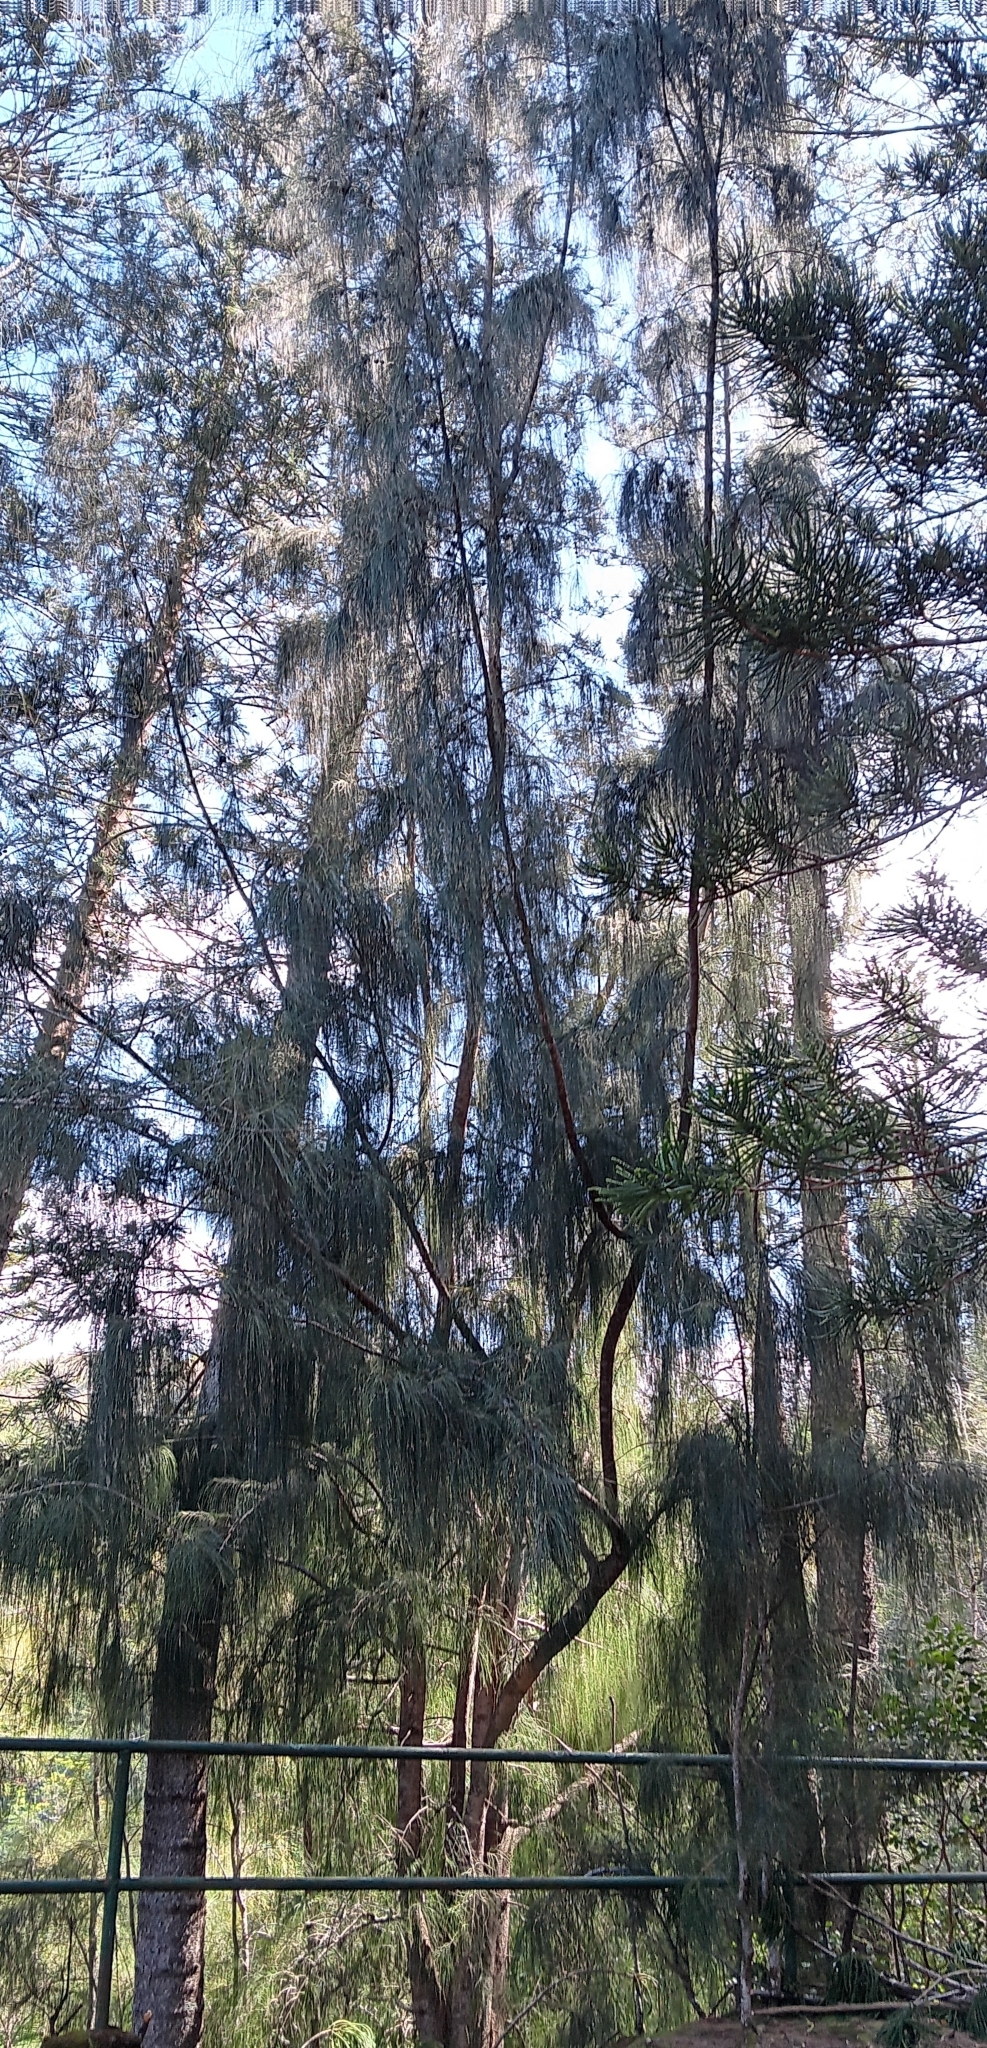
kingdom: Plantae
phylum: Tracheophyta
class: Magnoliopsida
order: Fagales
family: Casuarinaceae
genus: Casuarina
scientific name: Casuarina equisetifolia
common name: Beach sheoak
